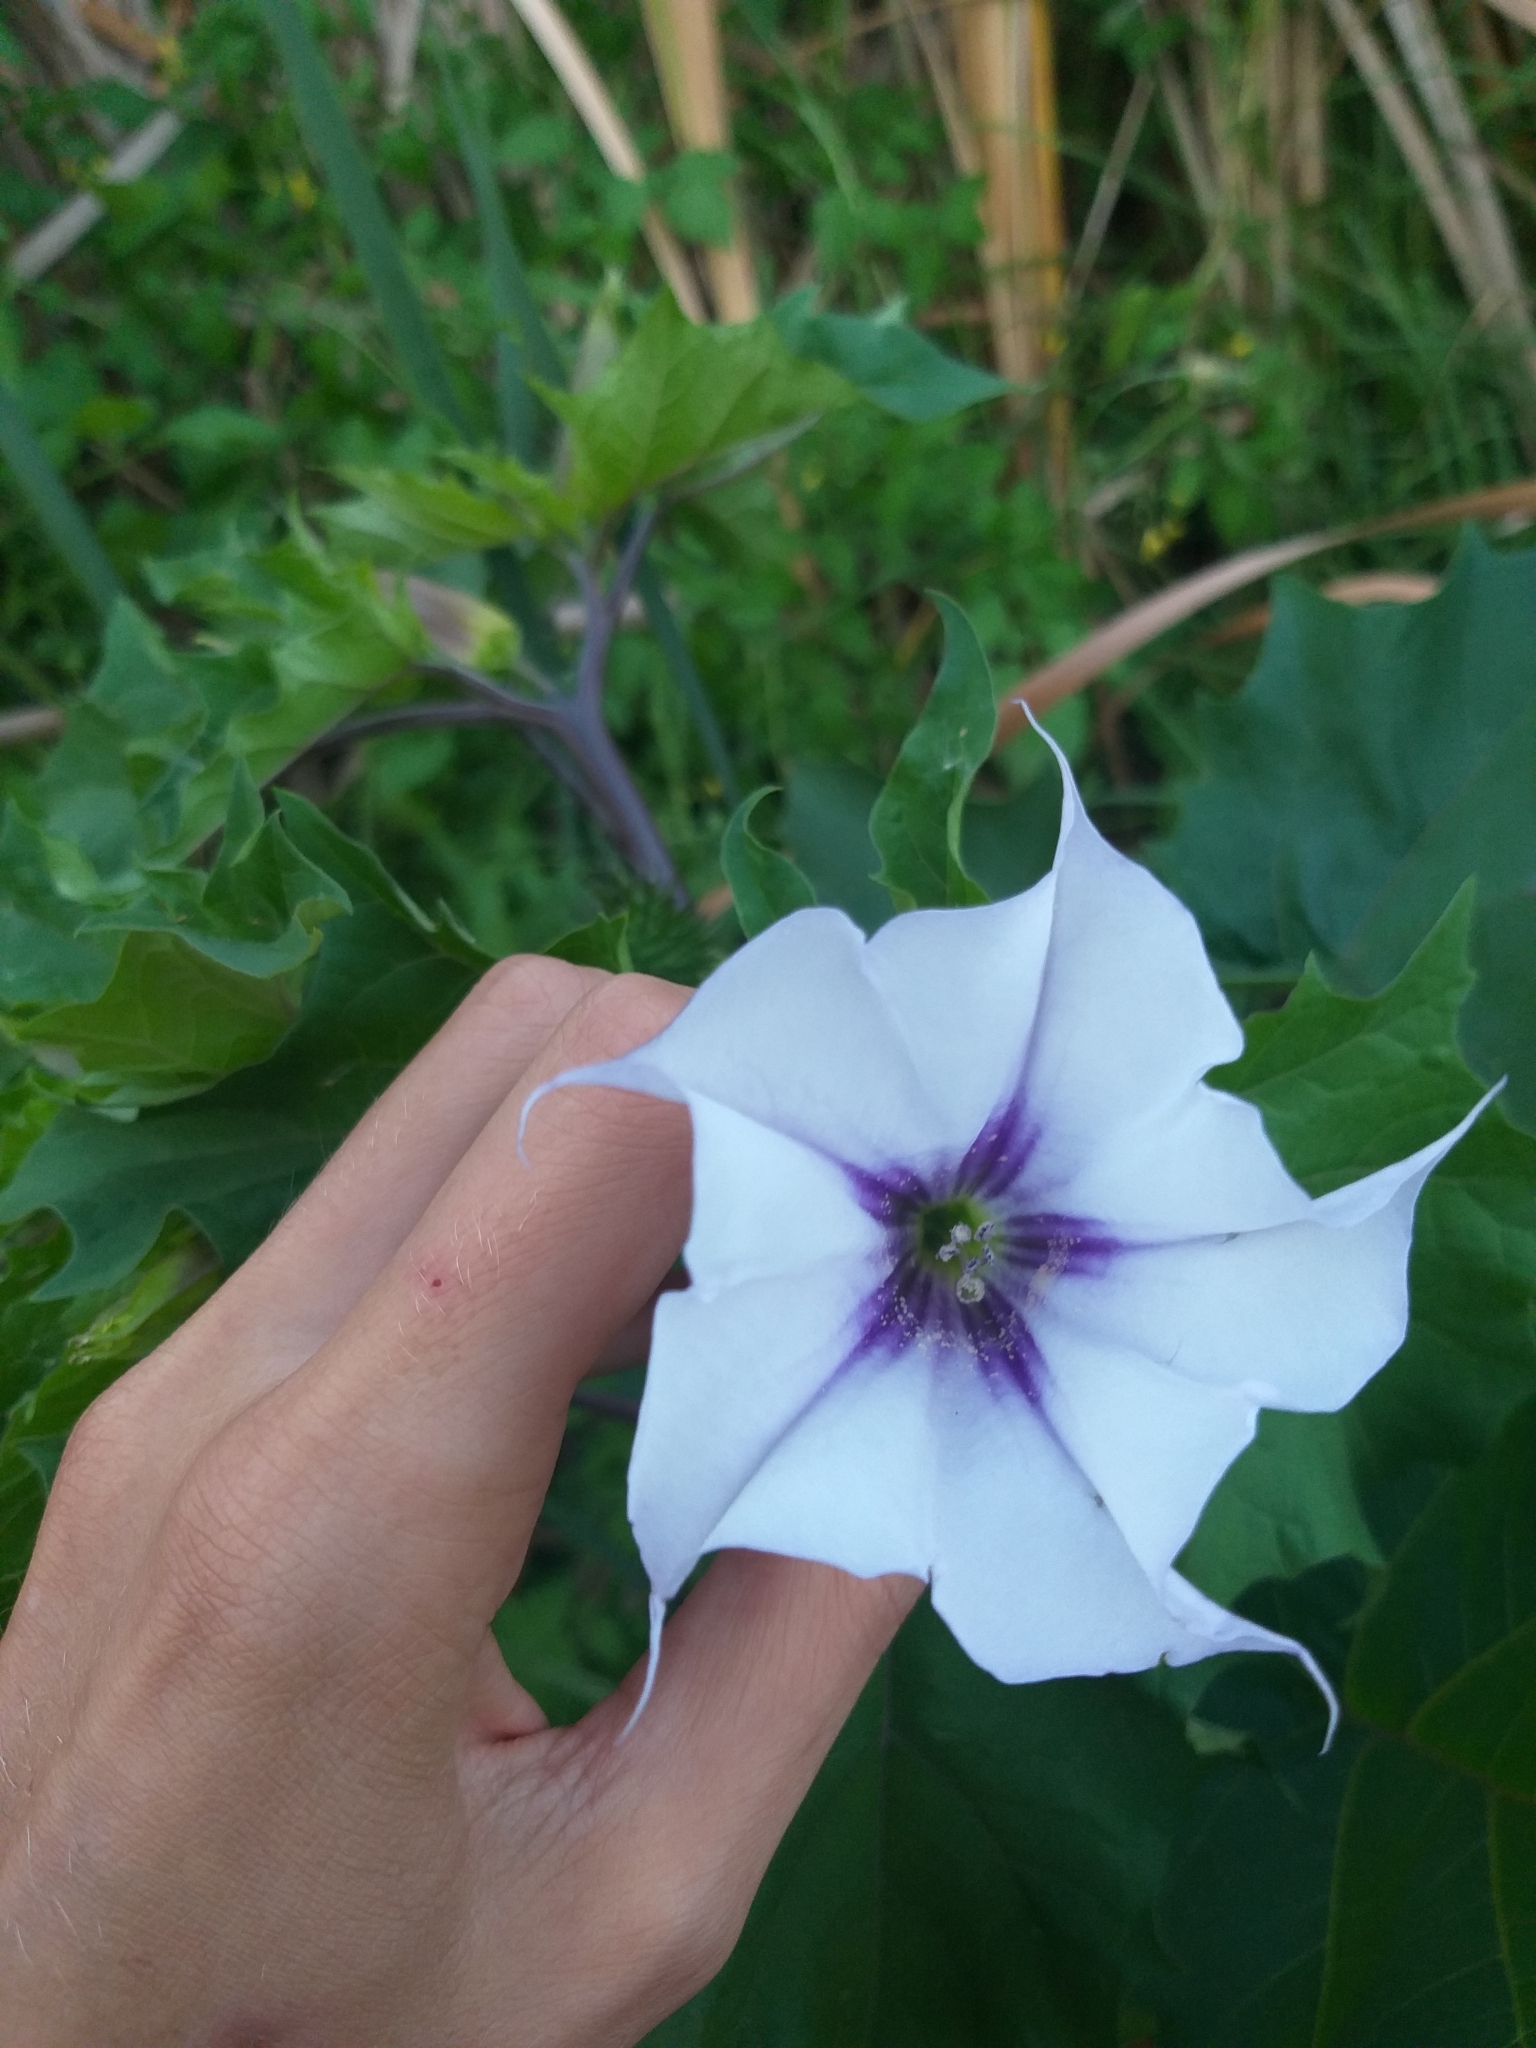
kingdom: Plantae
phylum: Tracheophyta
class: Magnoliopsida
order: Solanales
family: Solanaceae
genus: Datura
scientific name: Datura stramonium
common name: Thorn-apple
